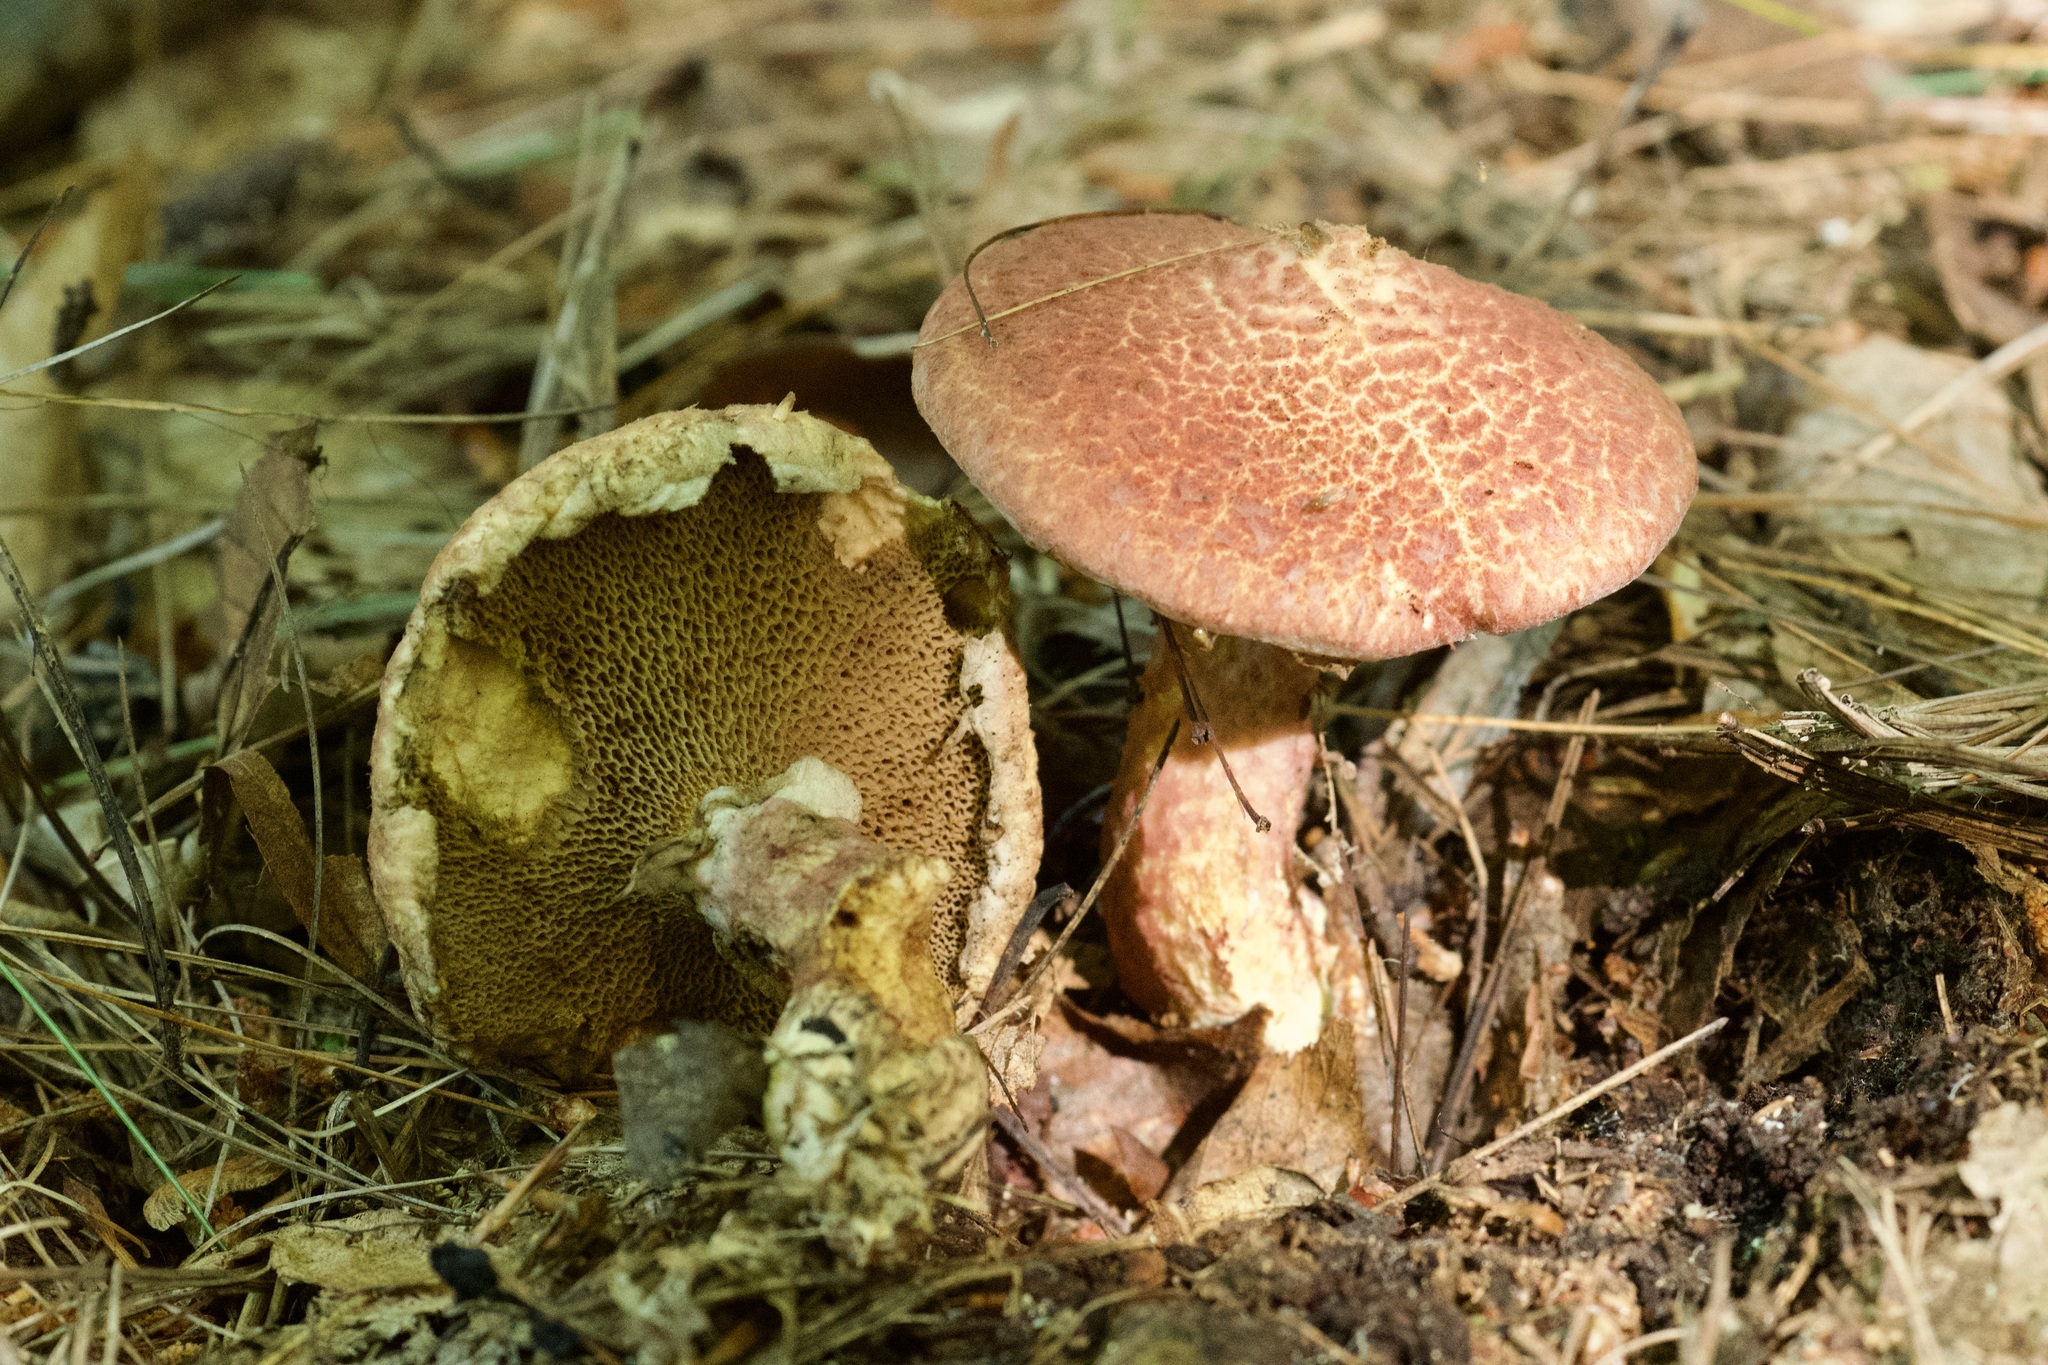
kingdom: Fungi
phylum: Basidiomycota
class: Agaricomycetes
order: Boletales
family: Suillaceae
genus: Suillus
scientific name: Suillus spraguei
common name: Painted suillus
